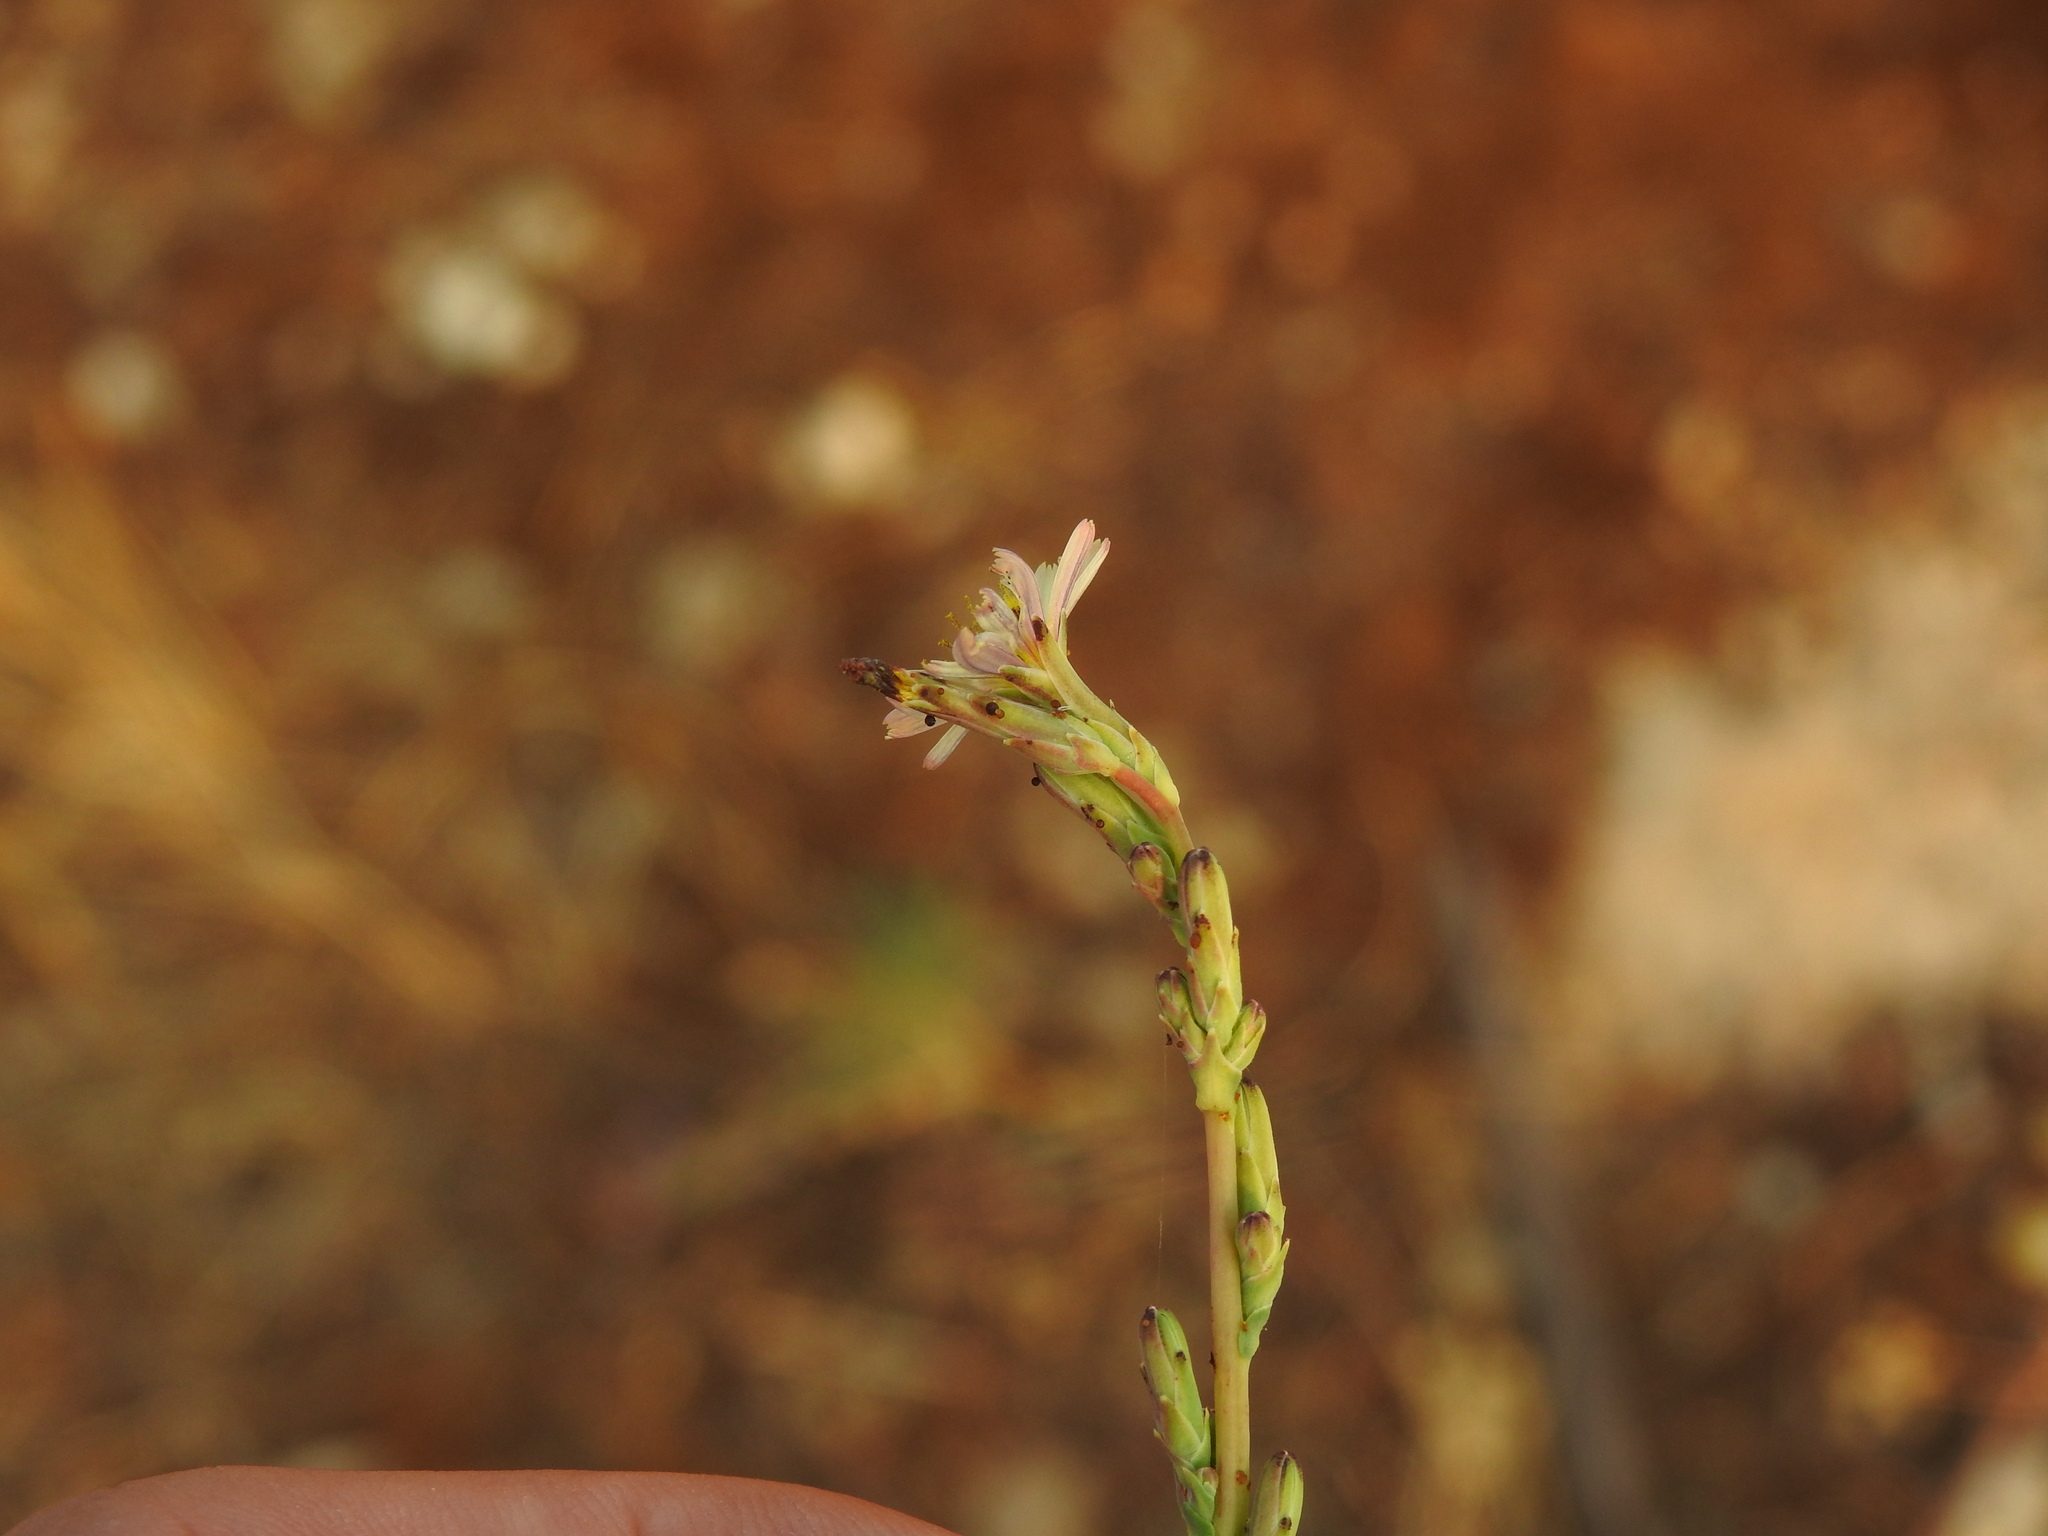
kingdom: Plantae
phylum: Tracheophyta
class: Magnoliopsida
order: Asterales
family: Asteraceae
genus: Lactuca
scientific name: Lactuca saligna
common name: Wild lettuce
